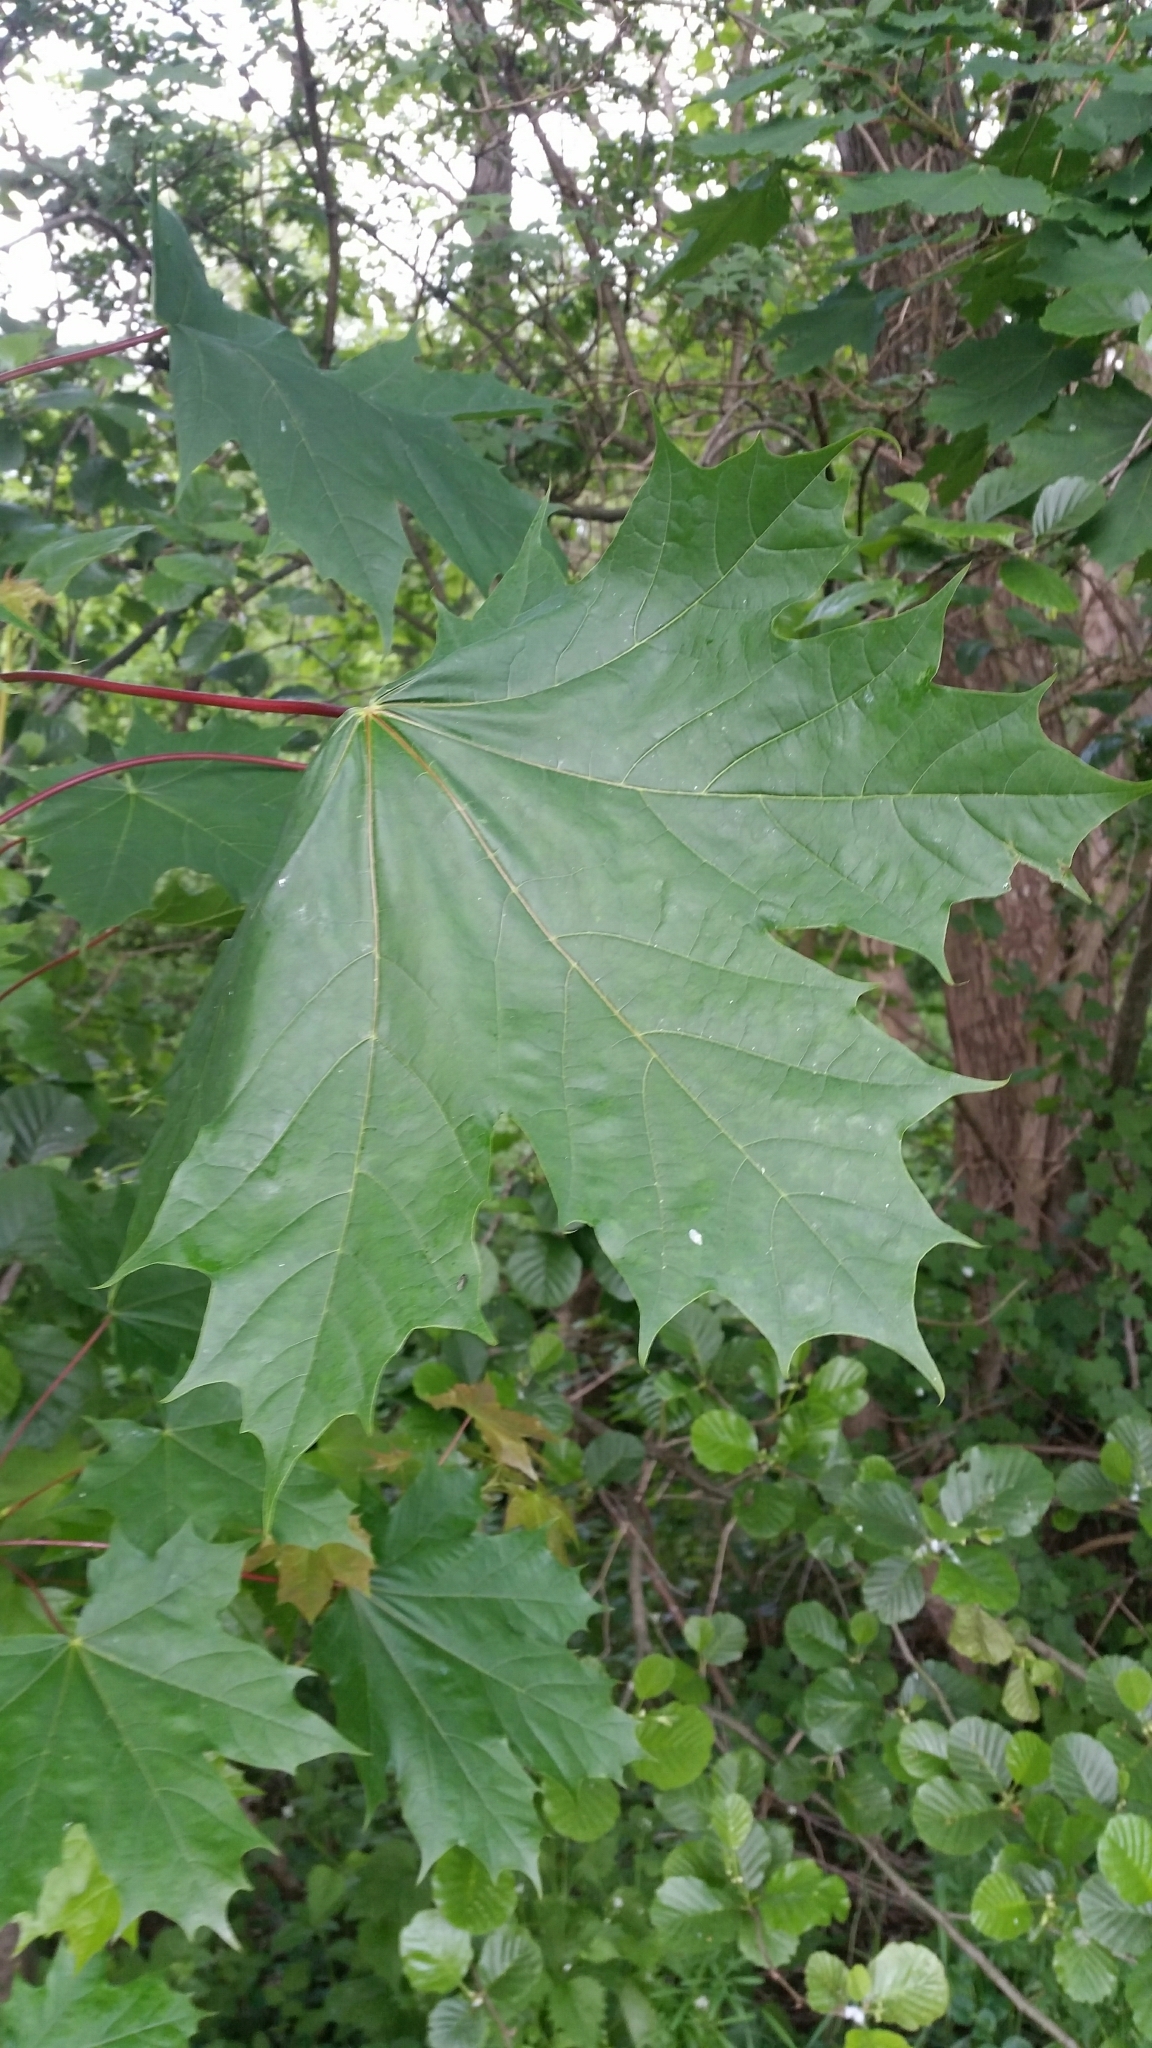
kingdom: Plantae
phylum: Tracheophyta
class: Magnoliopsida
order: Sapindales
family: Sapindaceae
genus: Acer
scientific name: Acer platanoides
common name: Norway maple
